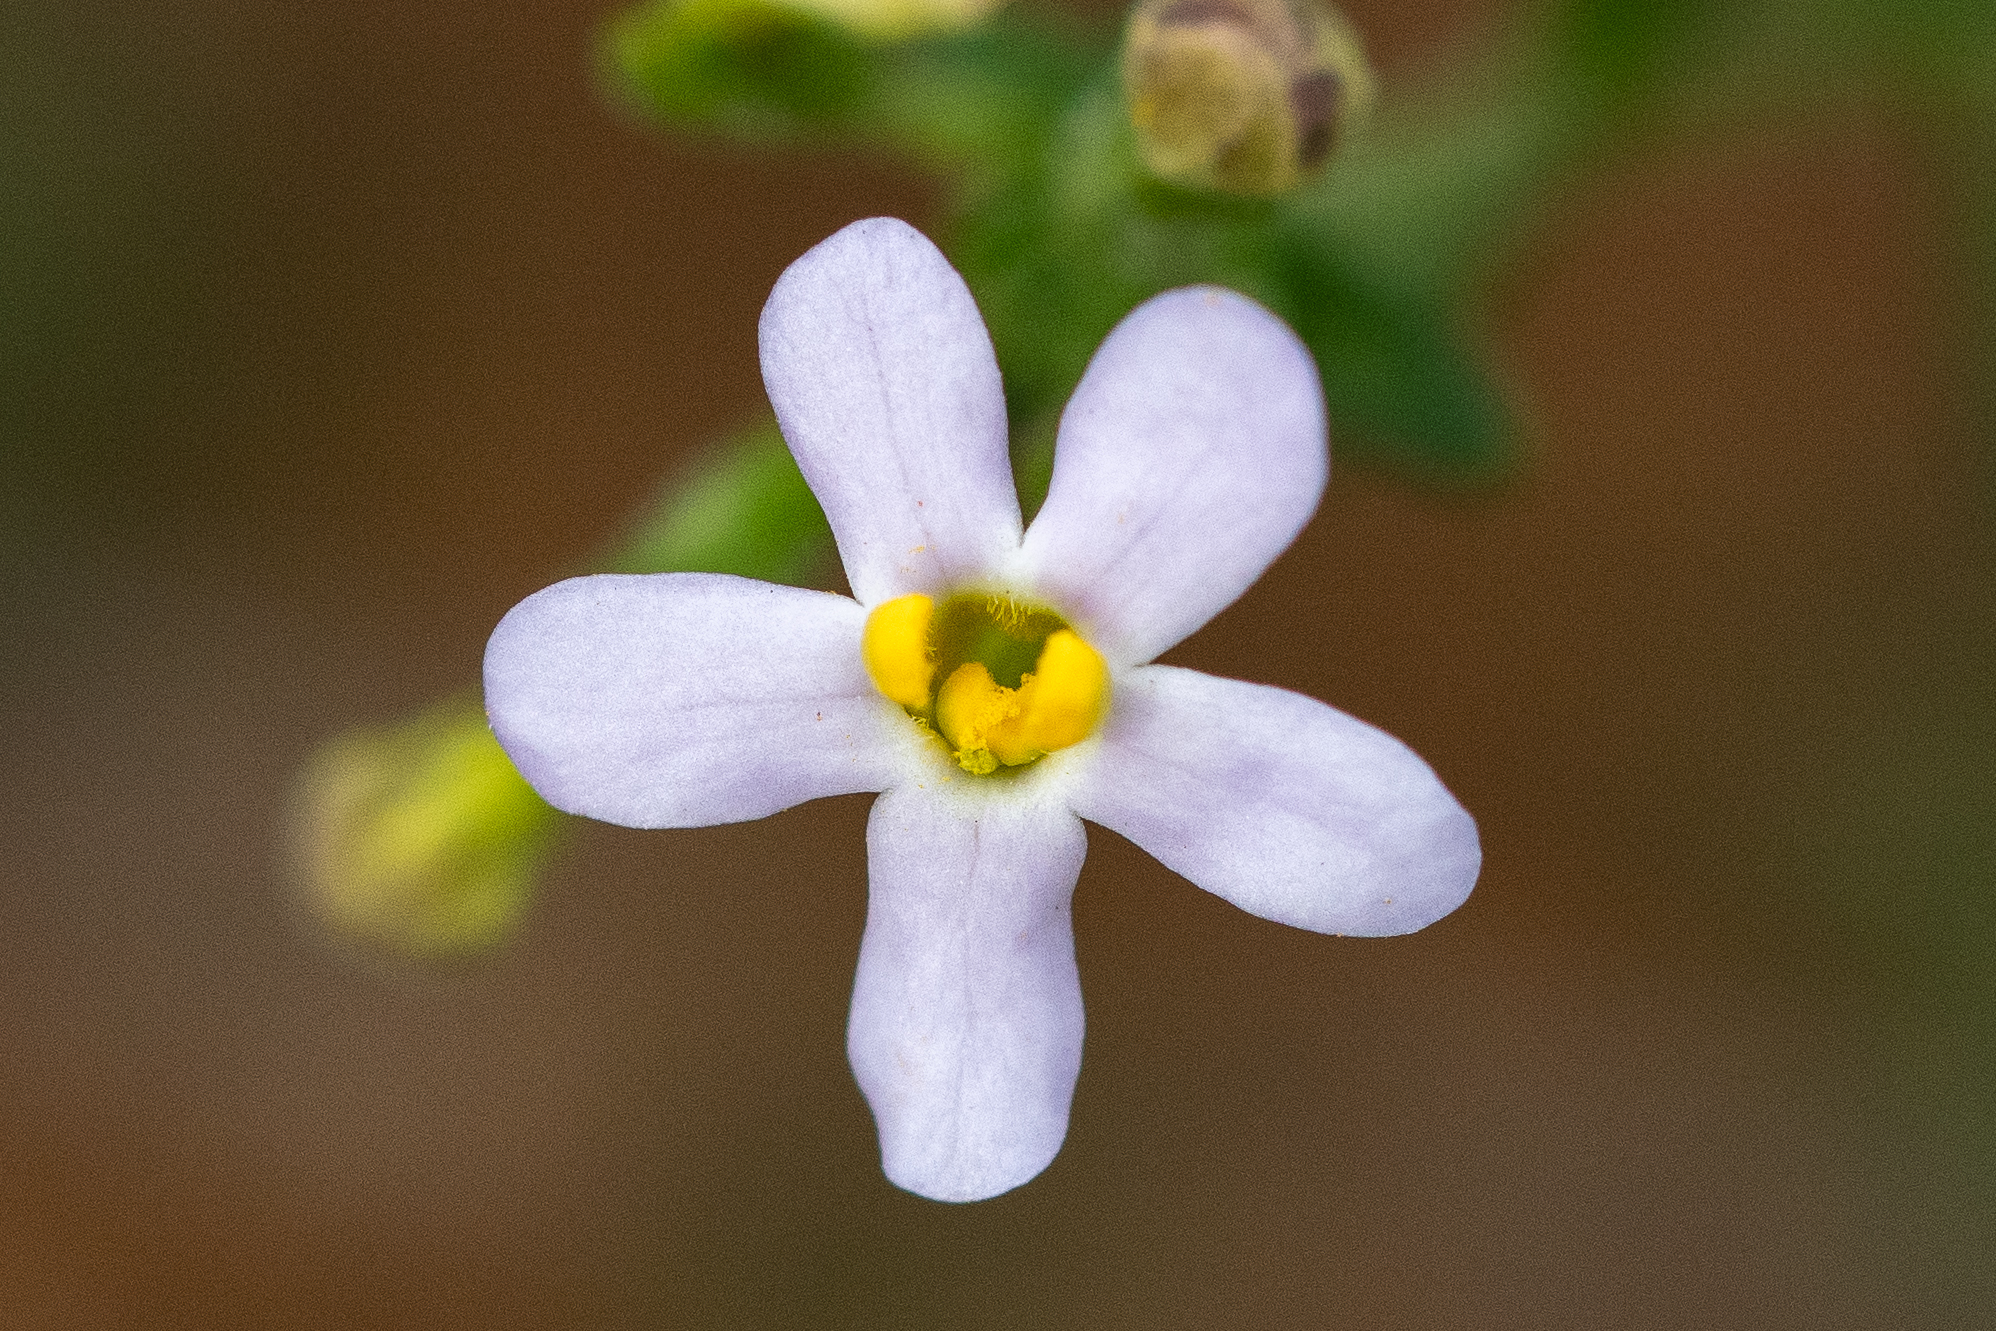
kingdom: Plantae
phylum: Tracheophyta
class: Magnoliopsida
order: Lamiales
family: Scrophulariaceae
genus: Chaenostoma
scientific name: Chaenostoma uncinatum
